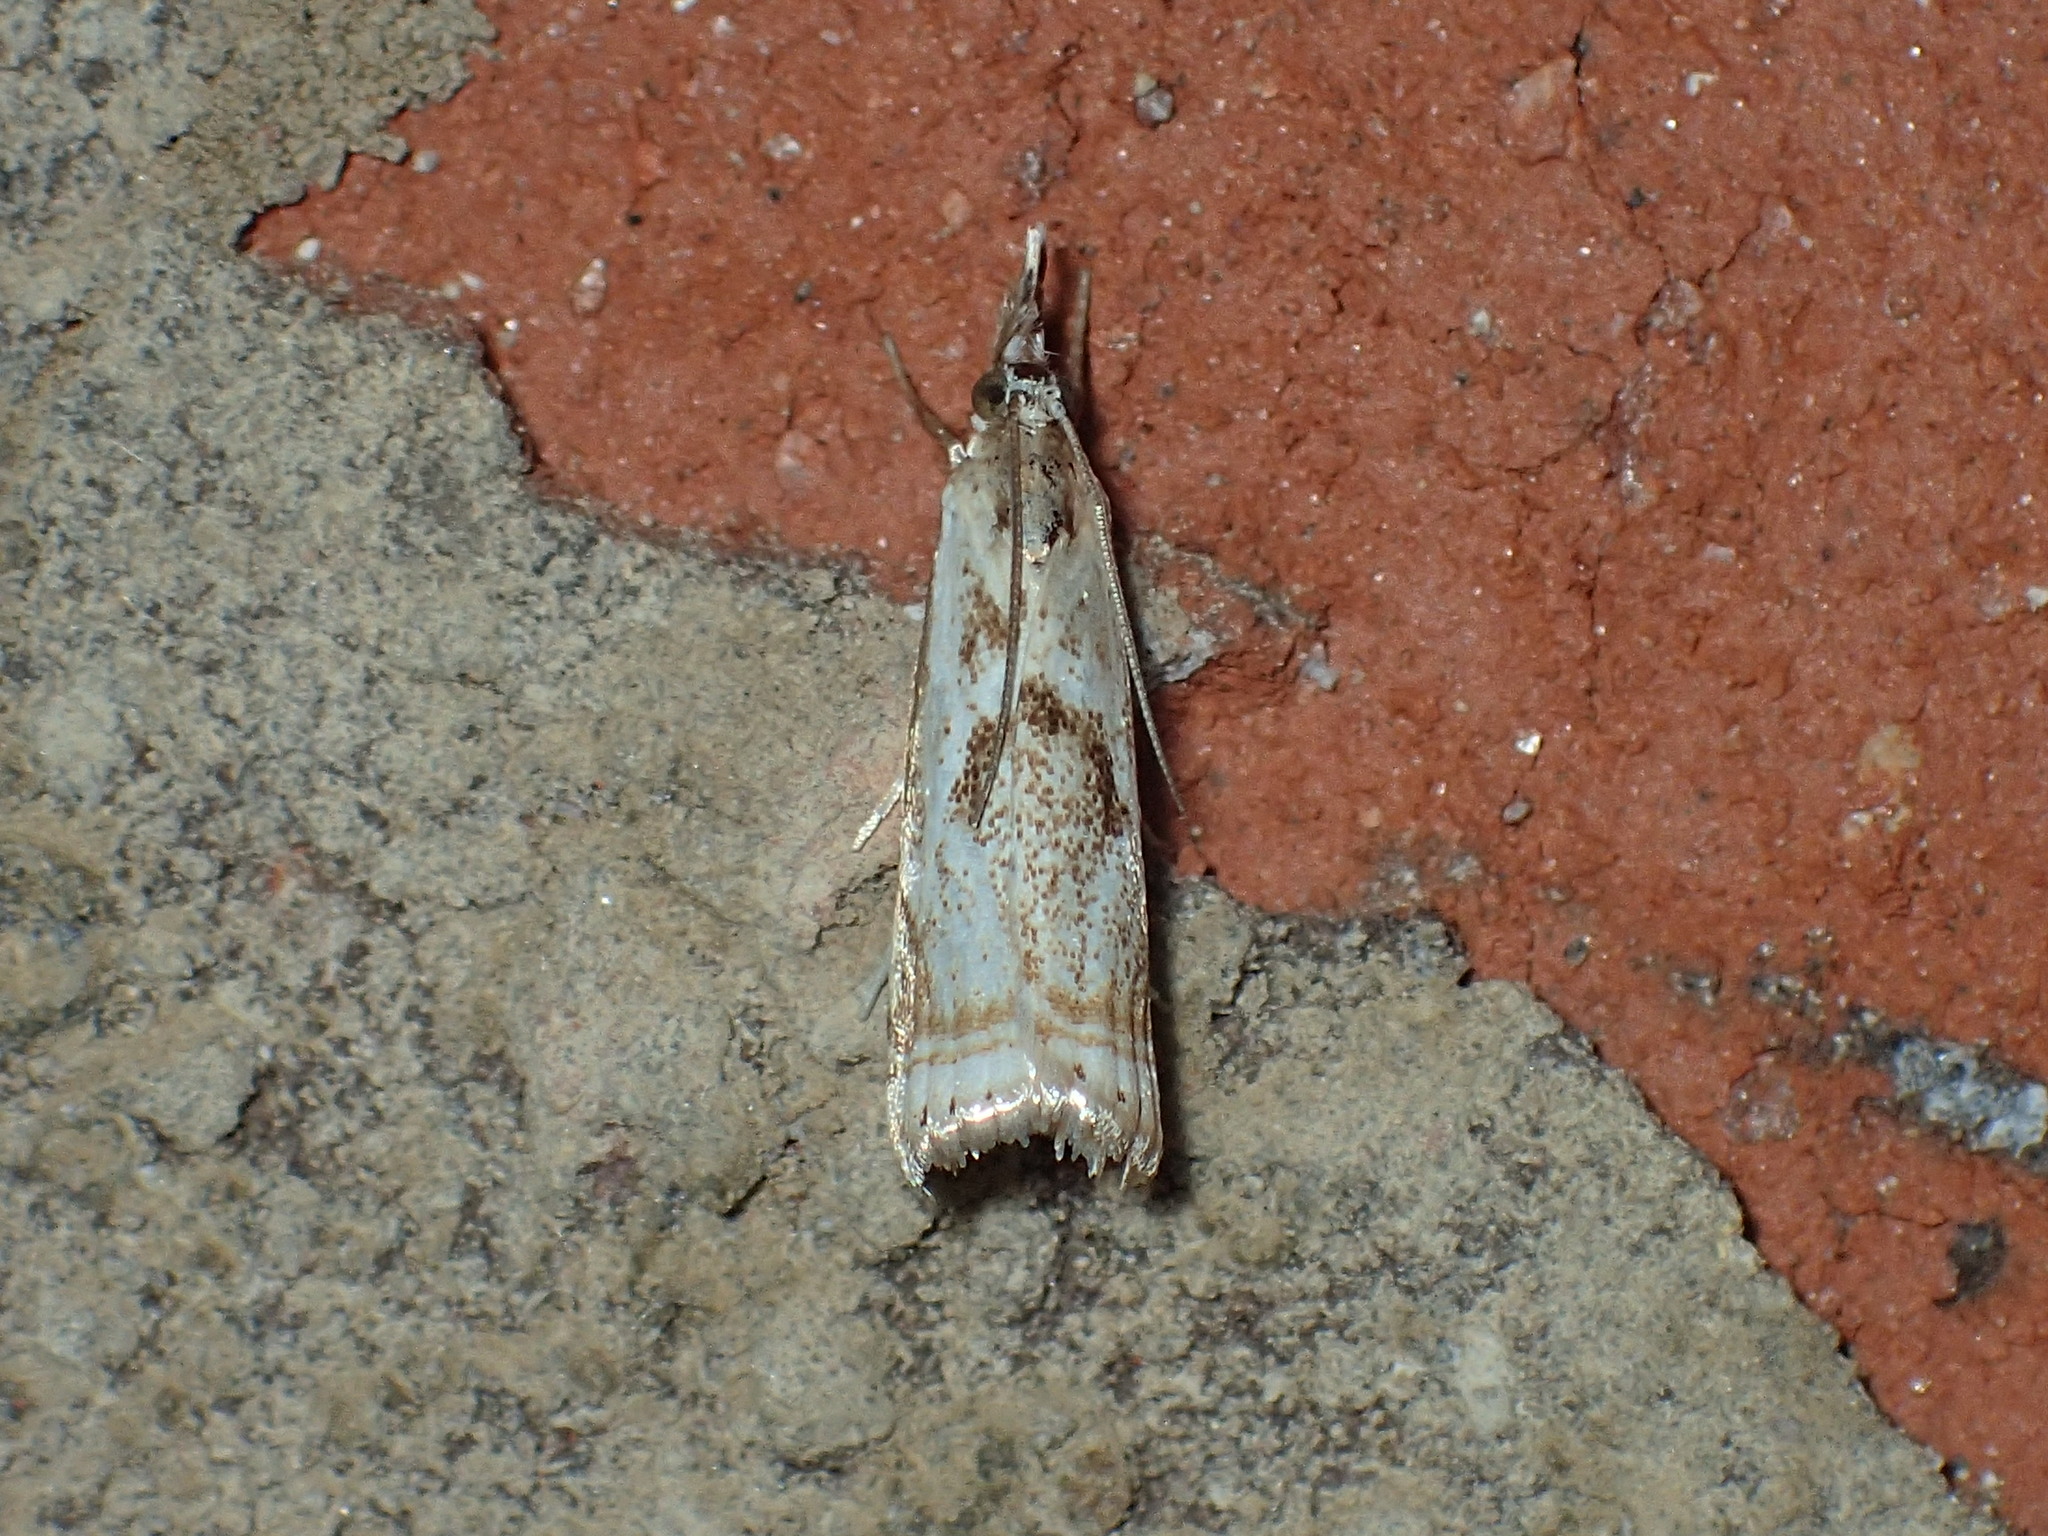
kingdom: Animalia
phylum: Arthropoda
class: Insecta
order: Lepidoptera
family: Crambidae
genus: Microcrambus
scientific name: Microcrambus elegans
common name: Elegant grass-veneer
